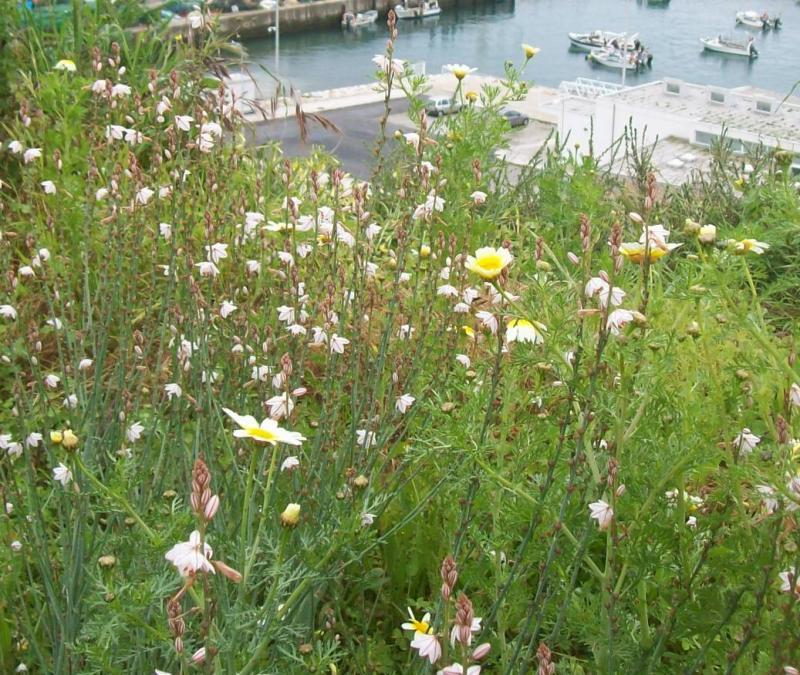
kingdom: Plantae
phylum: Tracheophyta
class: Liliopsida
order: Asparagales
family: Asphodelaceae
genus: Asphodelus
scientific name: Asphodelus fistulosus
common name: Onionweed
